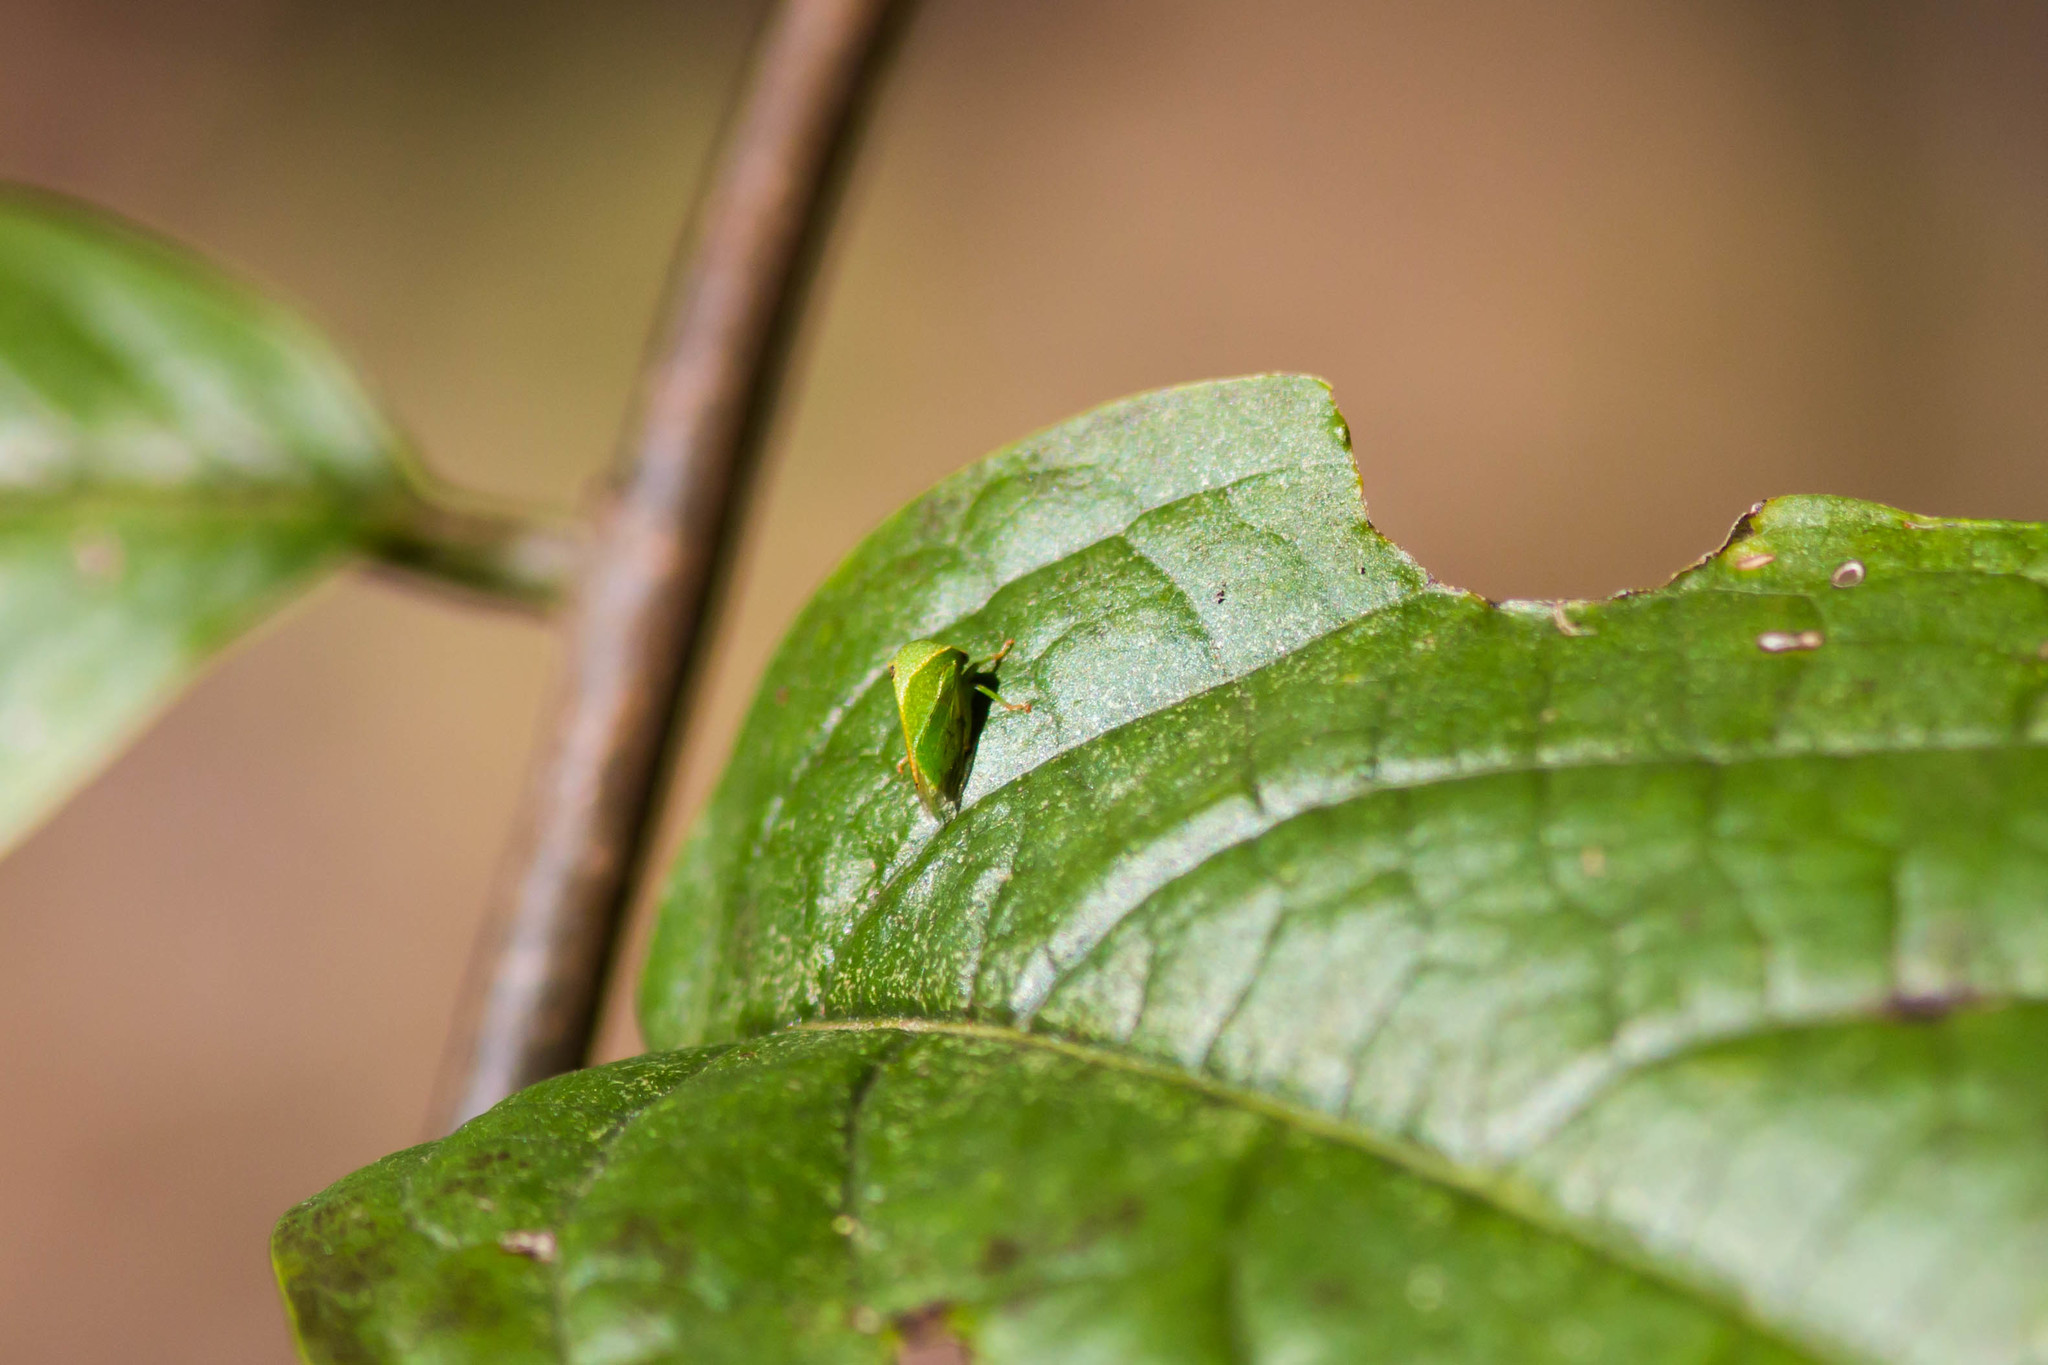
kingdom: Animalia
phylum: Arthropoda
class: Insecta
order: Hemiptera
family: Membracidae
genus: Spissistilus
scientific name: Spissistilus festina
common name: Membracid bug
